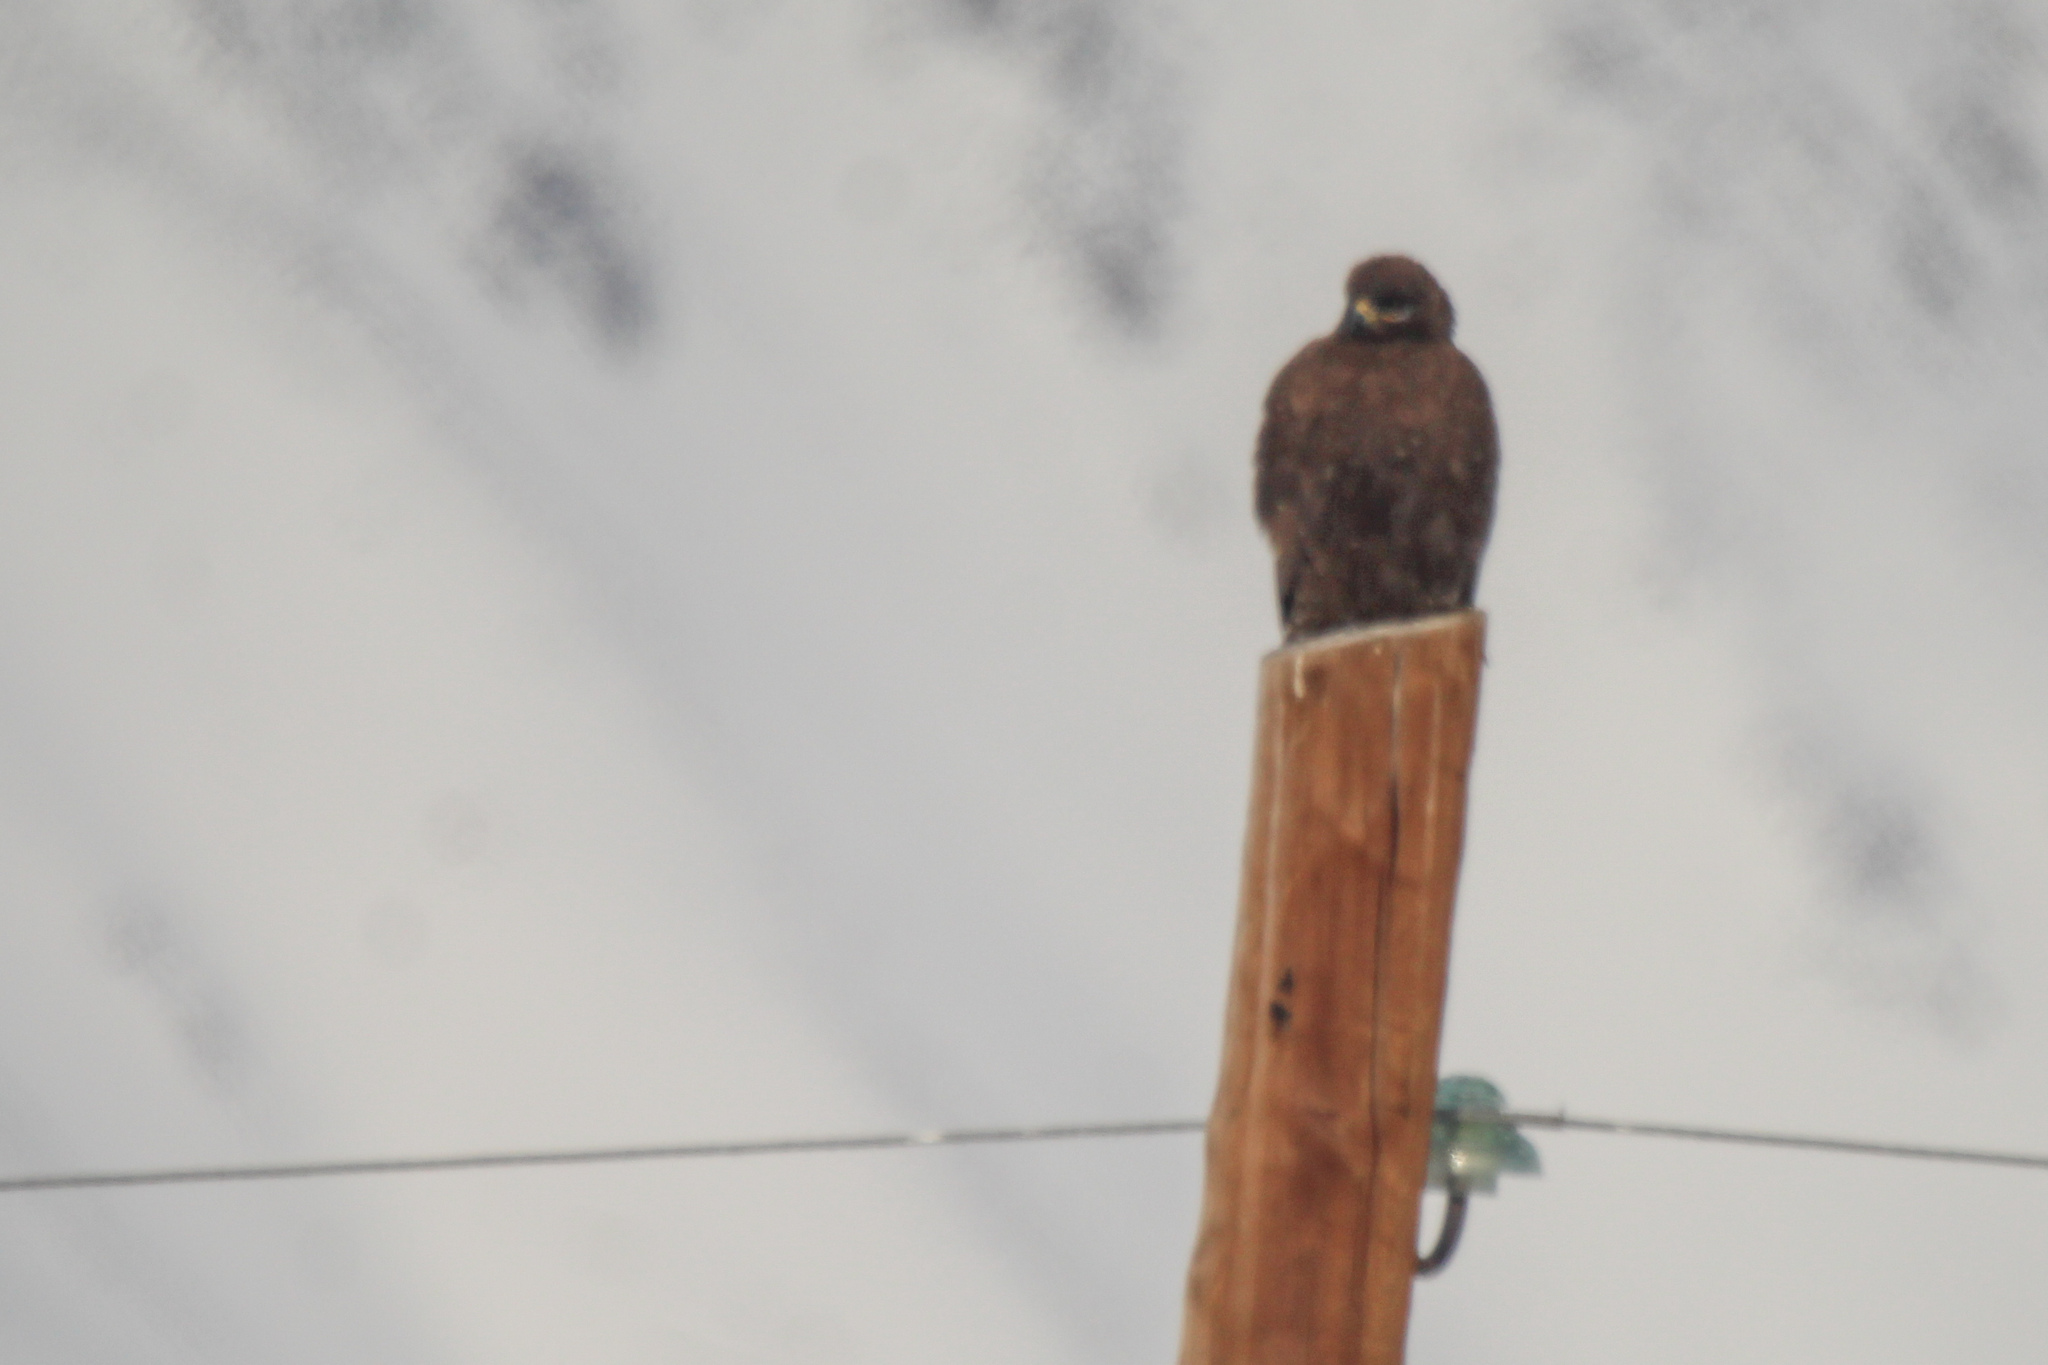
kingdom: Animalia
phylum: Chordata
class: Aves
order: Accipitriformes
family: Accipitridae
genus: Buteo
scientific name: Buteo hemilasius
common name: Upland buzzard
